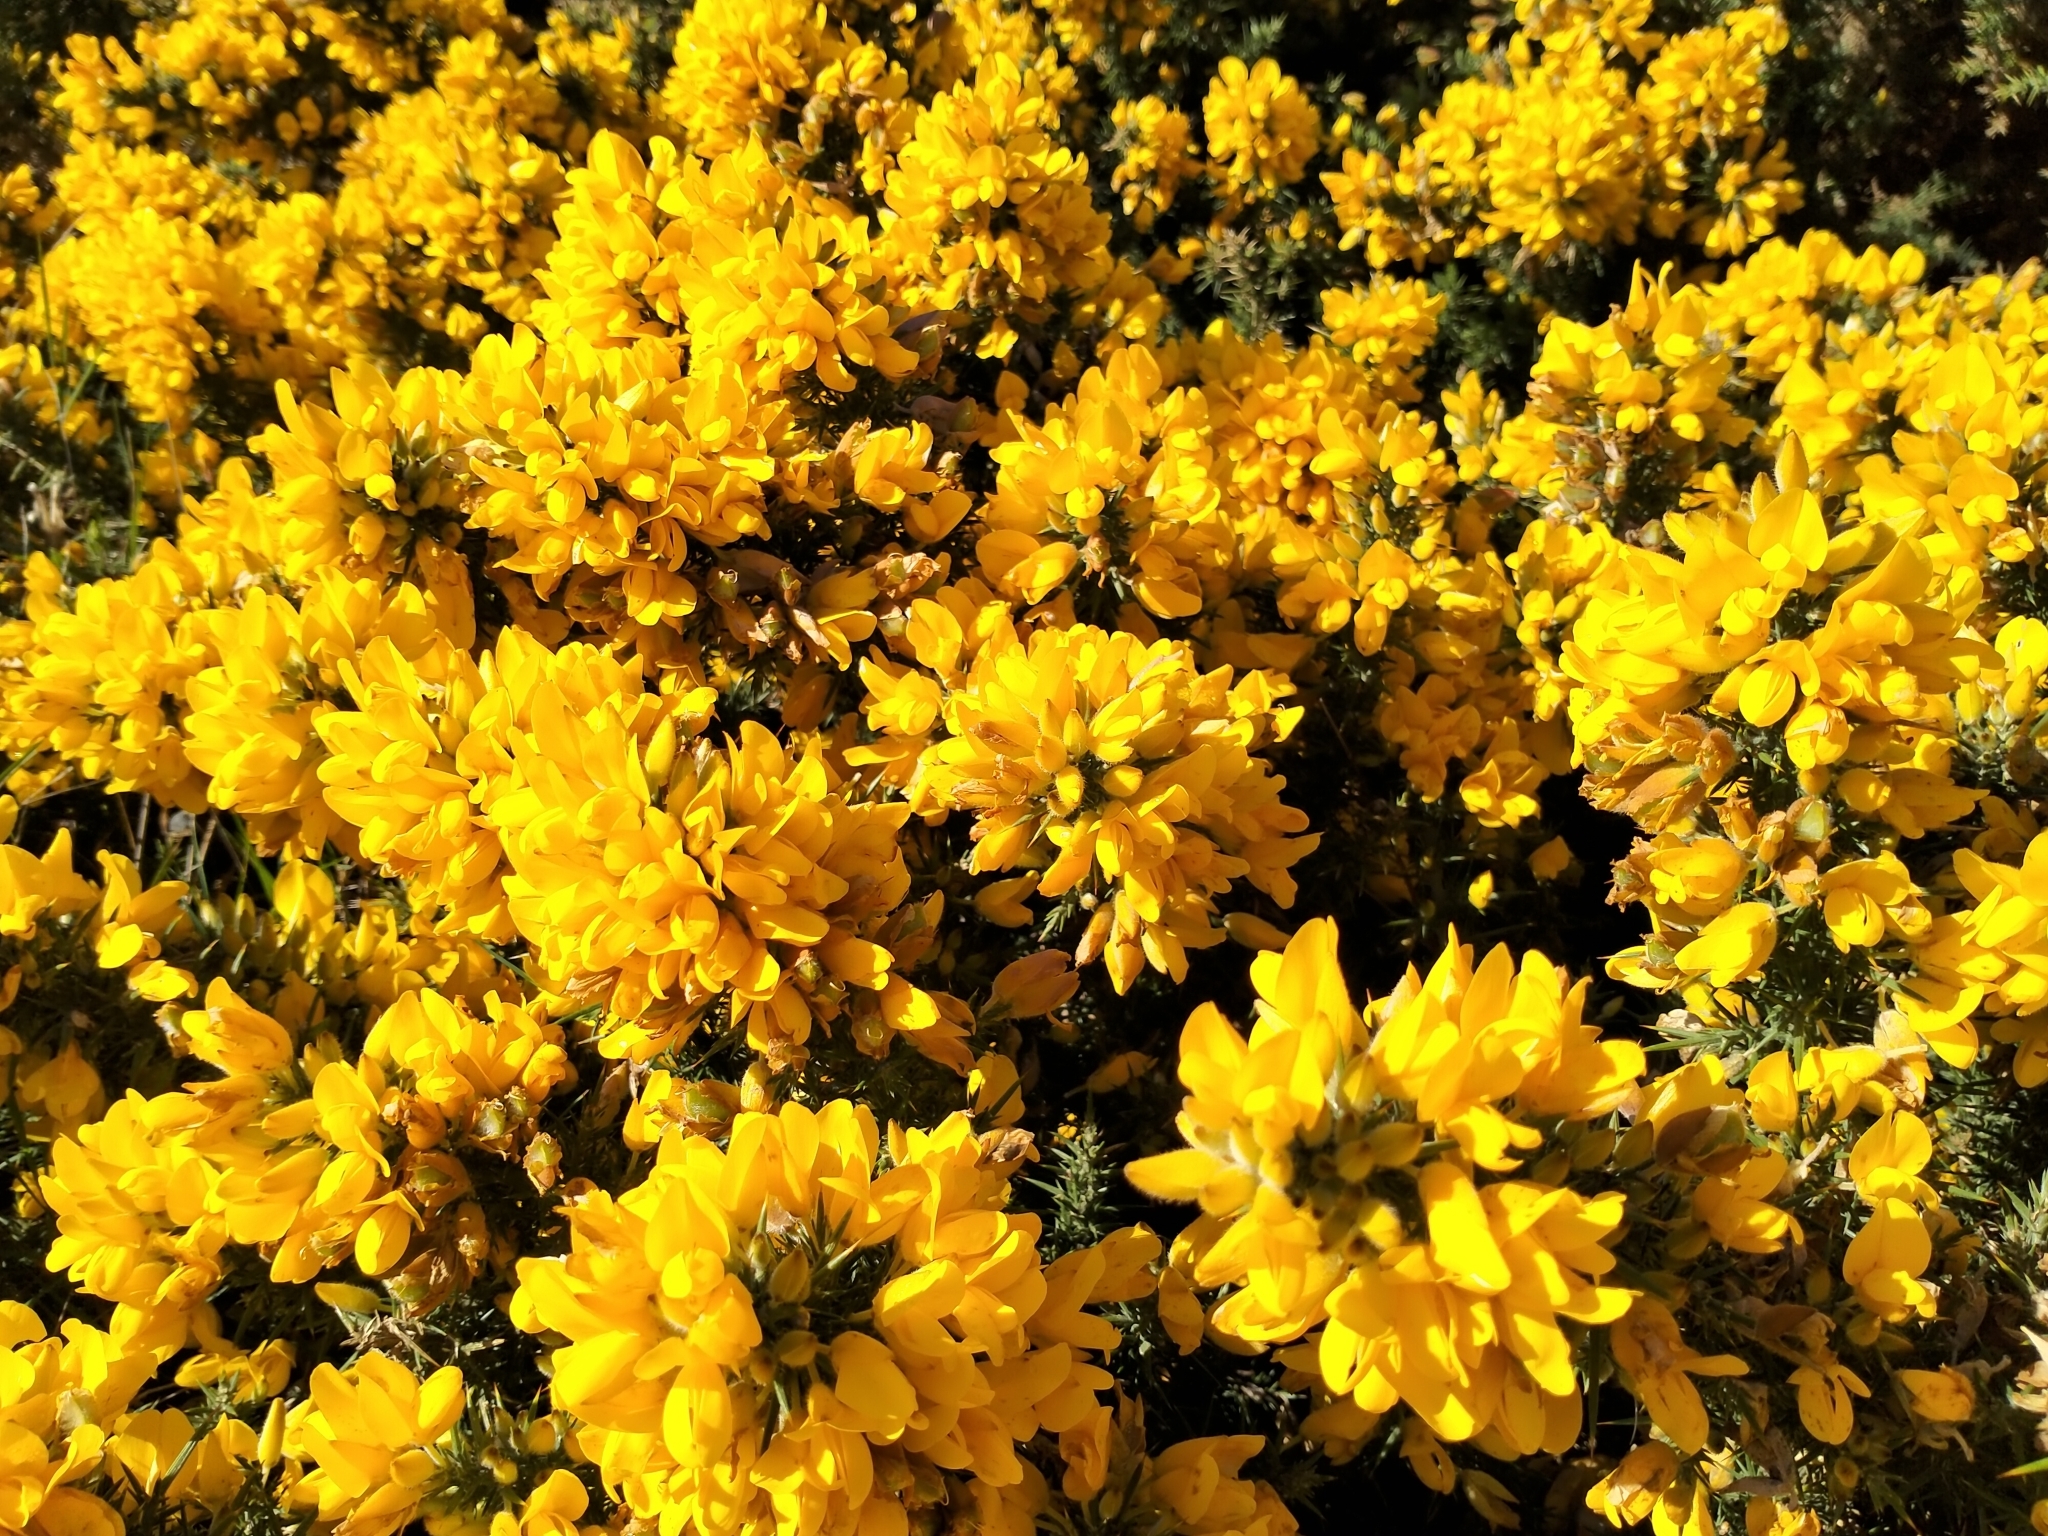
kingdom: Plantae
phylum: Tracheophyta
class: Magnoliopsida
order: Fabales
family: Fabaceae
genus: Ulex
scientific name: Ulex europaeus
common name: Common gorse
